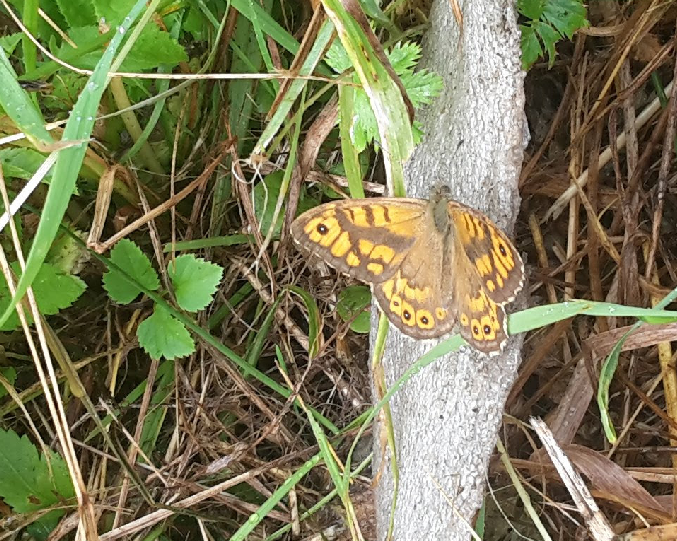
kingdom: Animalia
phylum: Arthropoda
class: Insecta
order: Lepidoptera
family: Nymphalidae
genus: Pararge
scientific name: Pararge Lasiommata megera
